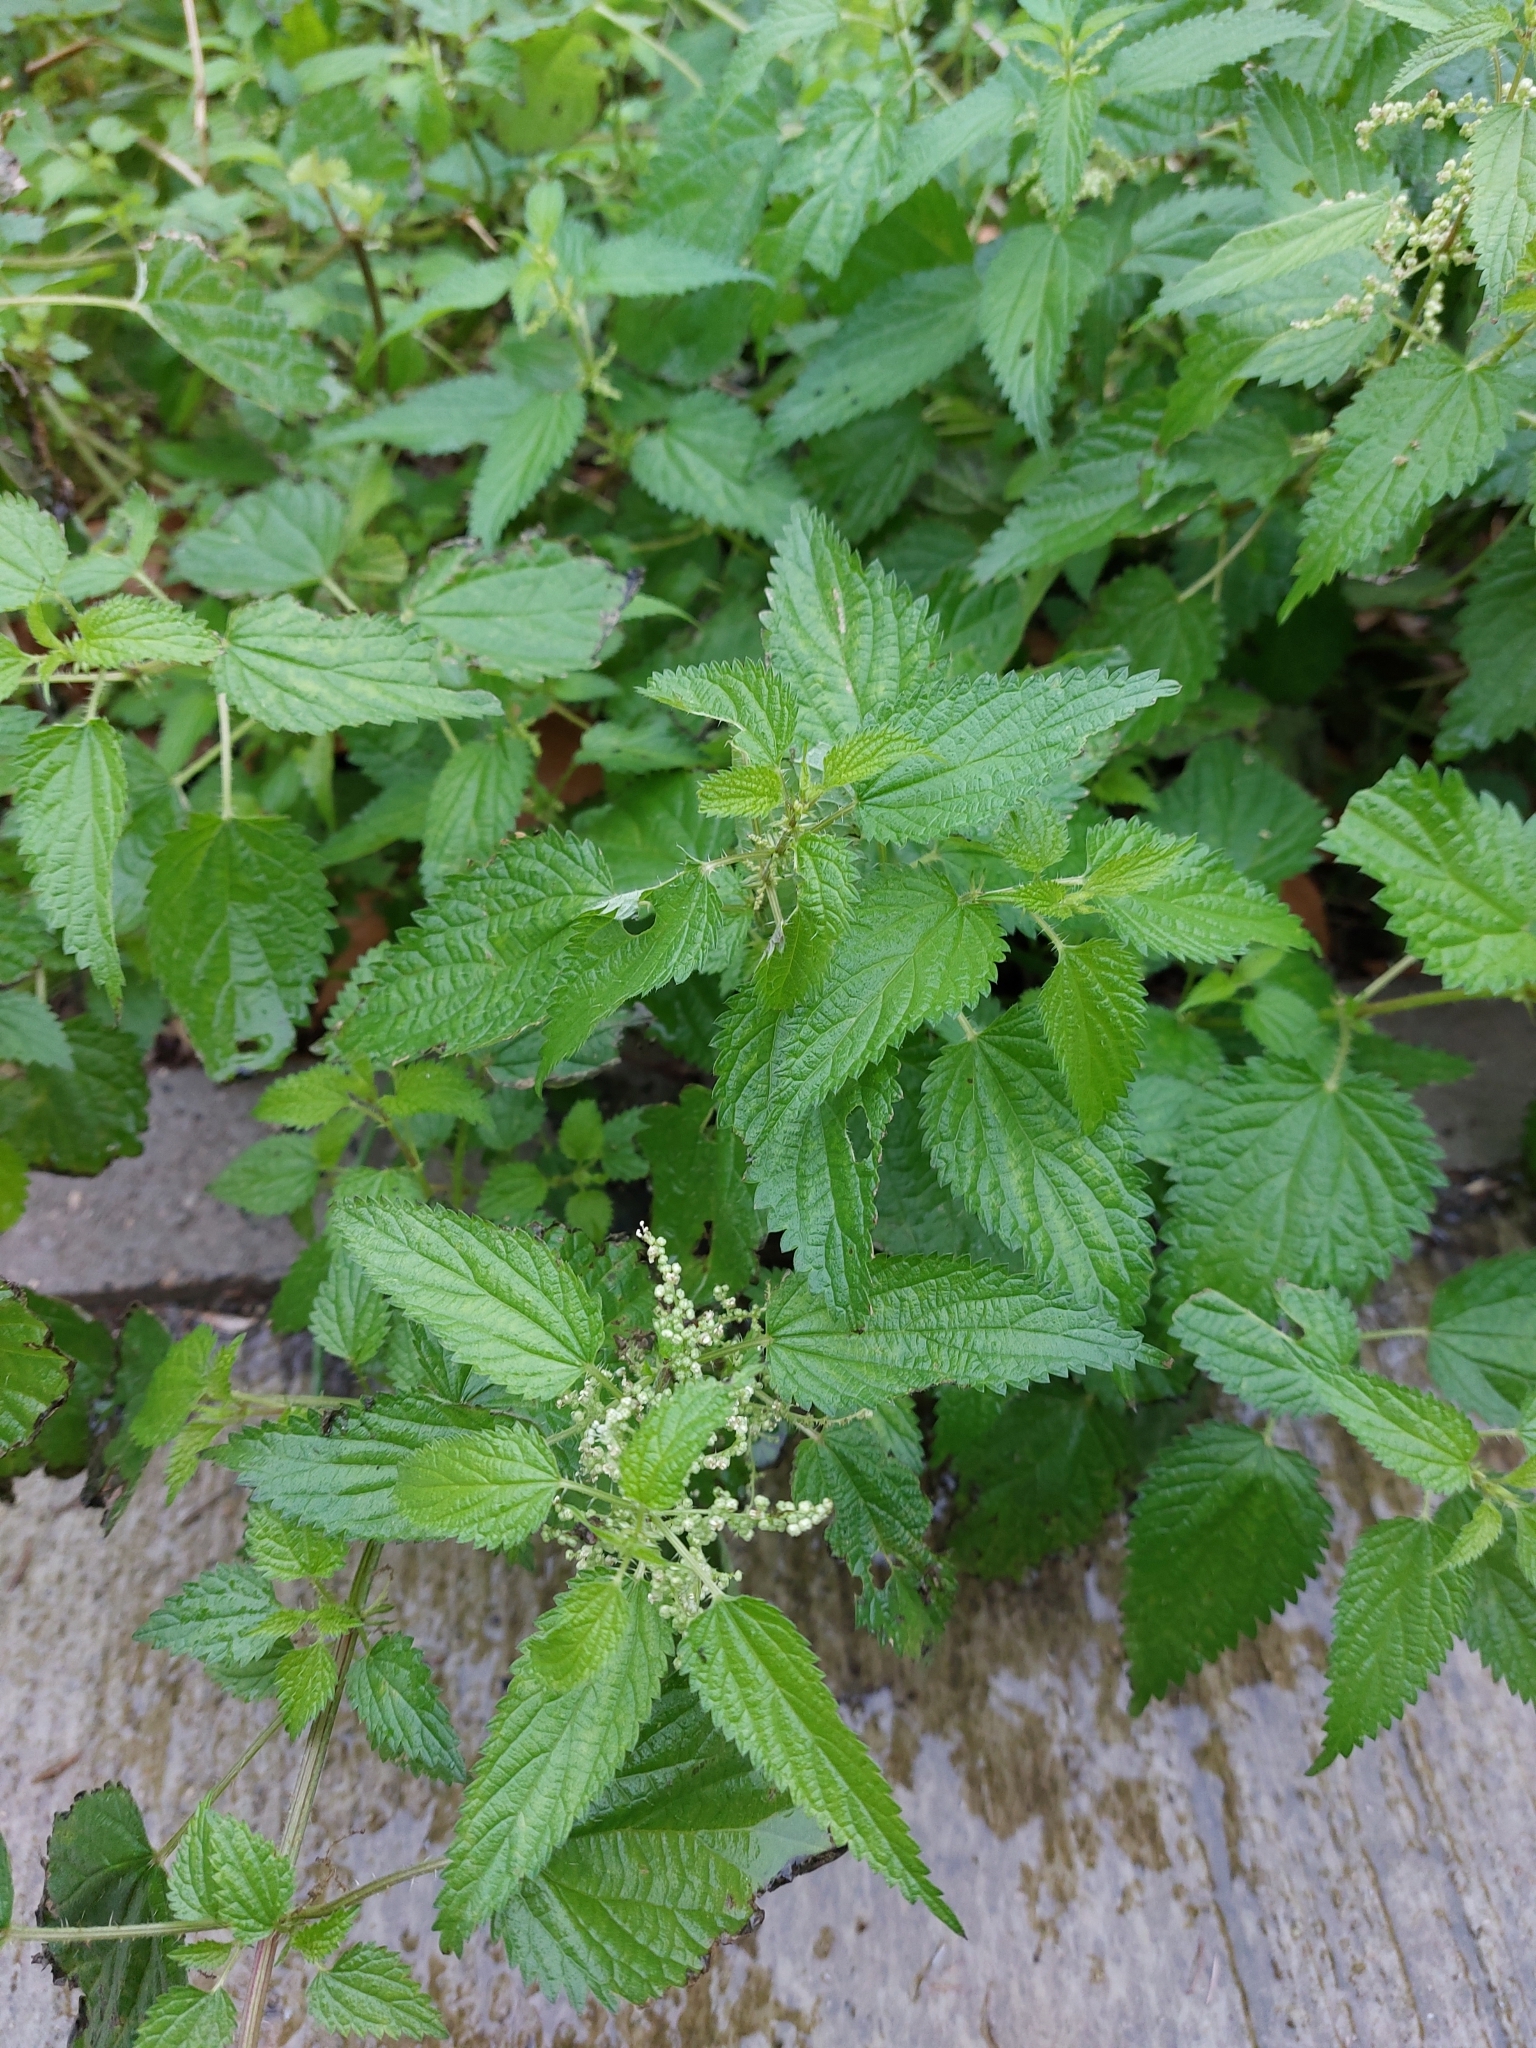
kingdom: Plantae
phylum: Tracheophyta
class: Magnoliopsida
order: Rosales
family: Urticaceae
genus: Urtica
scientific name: Urtica dioica
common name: Common nettle
